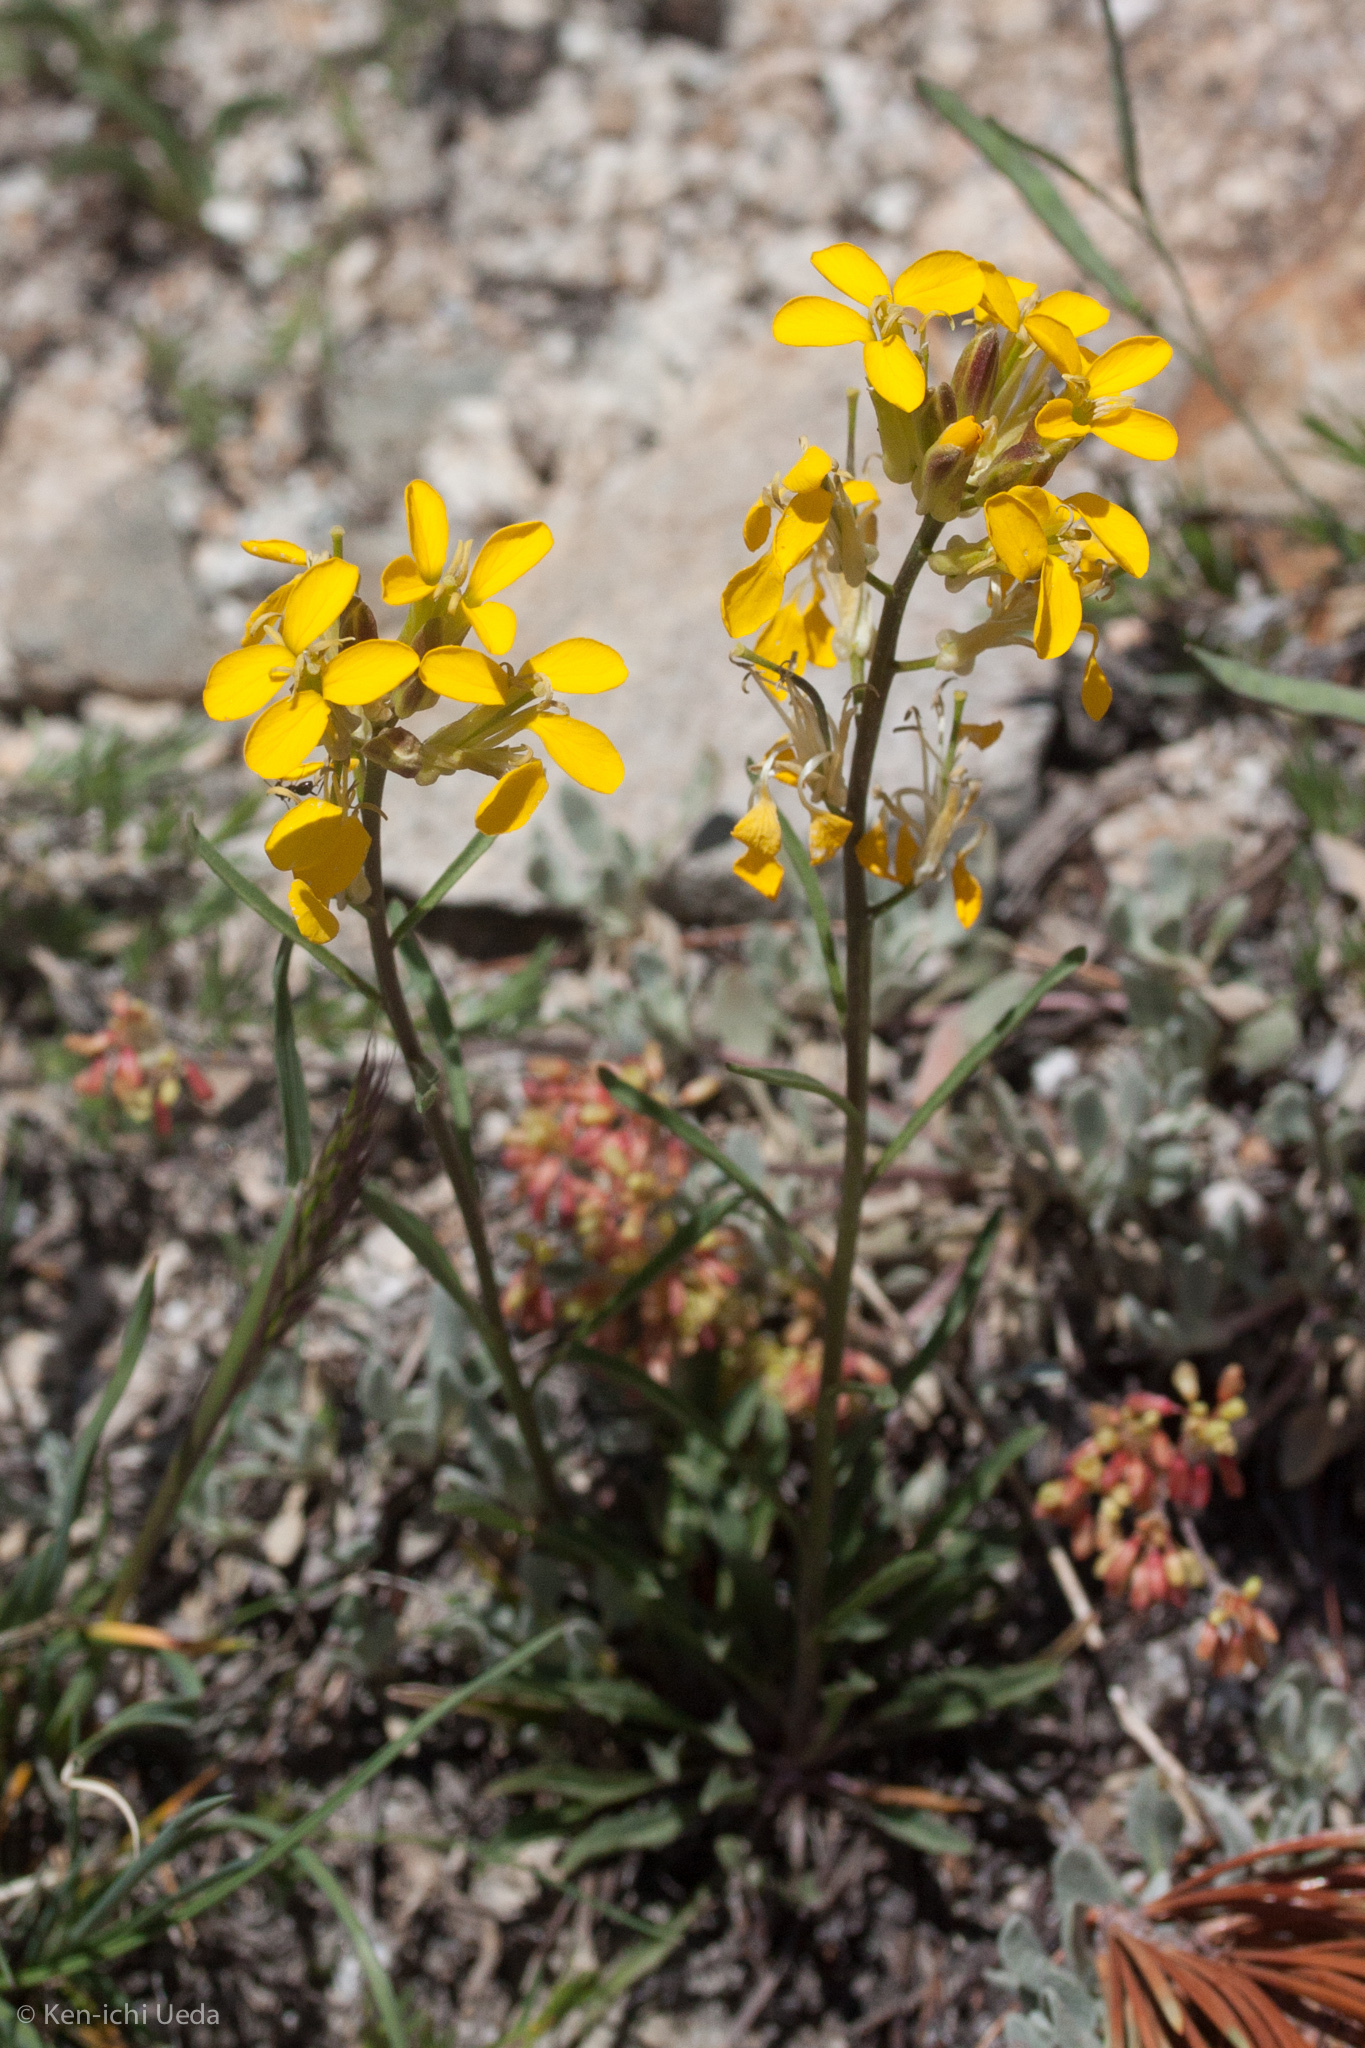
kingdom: Plantae
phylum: Tracheophyta
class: Magnoliopsida
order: Brassicales
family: Brassicaceae
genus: Erysimum
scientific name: Erysimum capitatum
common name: Western wallflower
